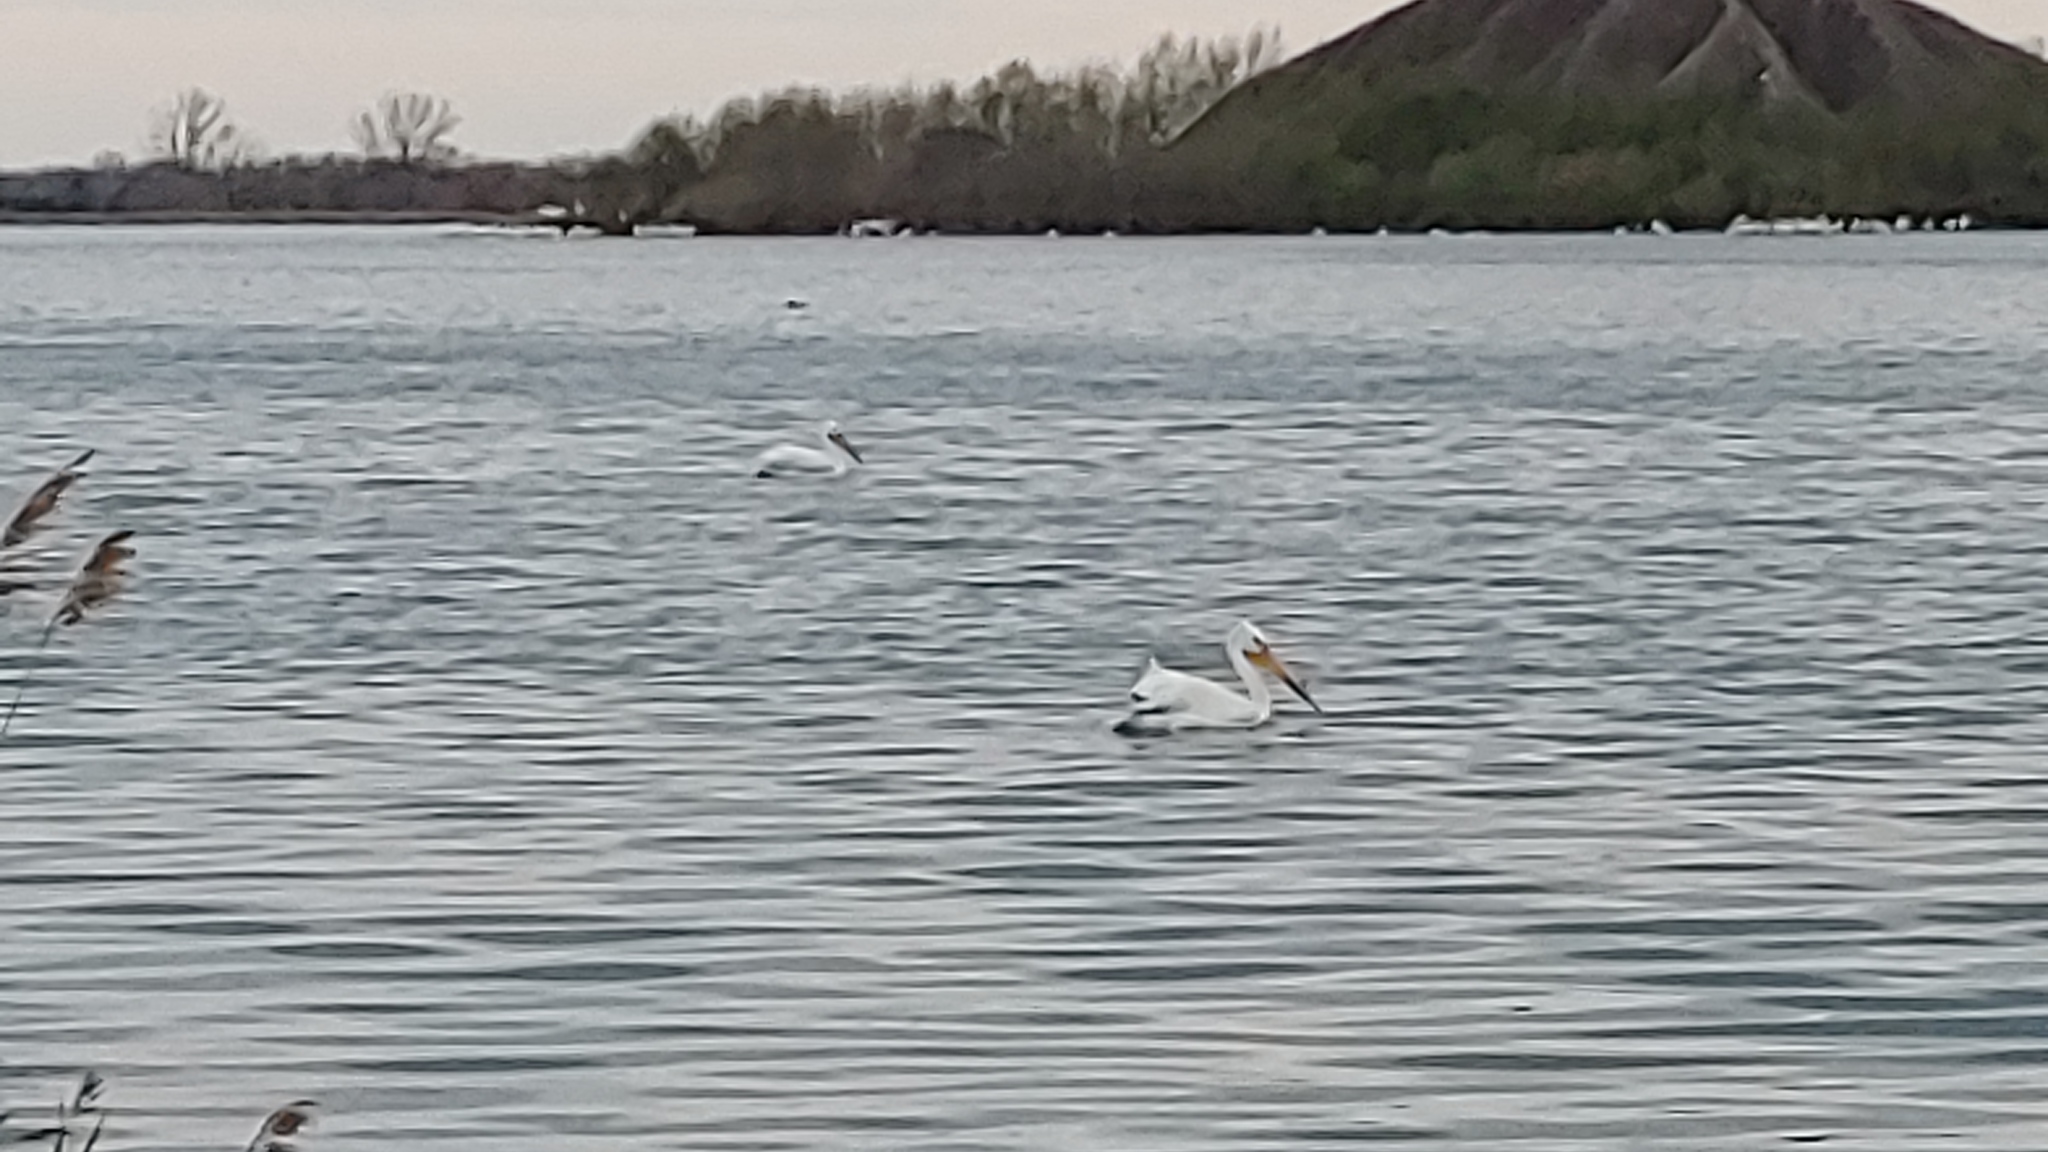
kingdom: Animalia
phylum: Chordata
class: Aves
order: Pelecaniformes
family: Pelecanidae
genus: Pelecanus
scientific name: Pelecanus erythrorhynchos
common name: American white pelican
